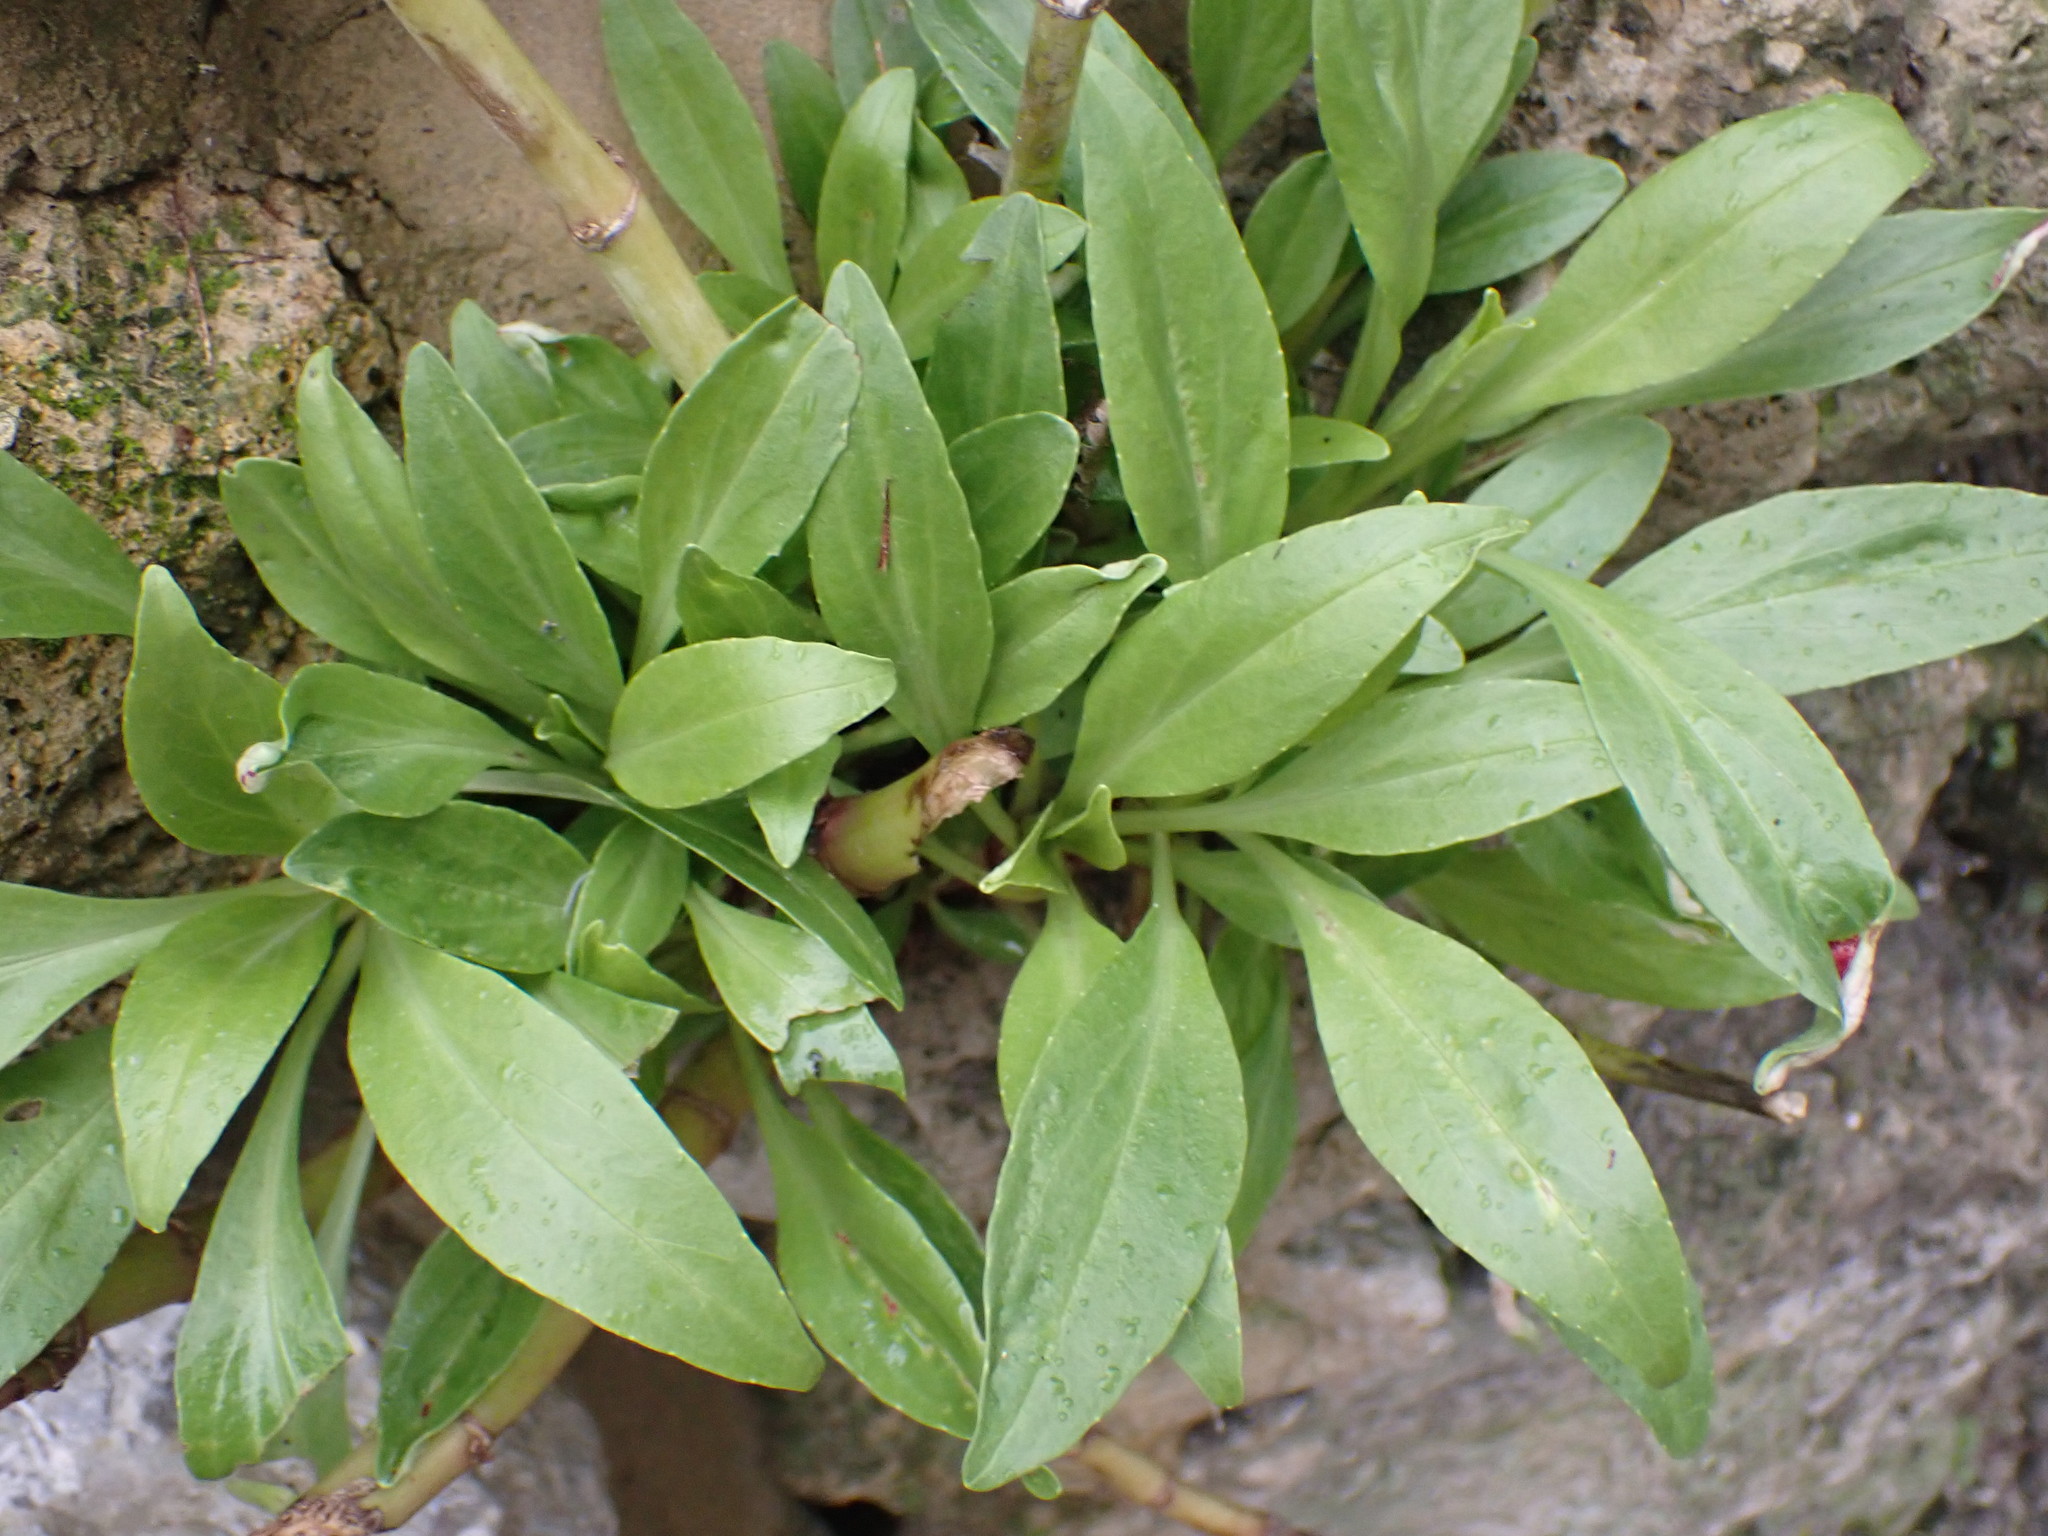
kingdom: Plantae
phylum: Tracheophyta
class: Magnoliopsida
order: Dipsacales
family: Caprifoliaceae
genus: Centranthus
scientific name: Centranthus ruber
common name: Red valerian
